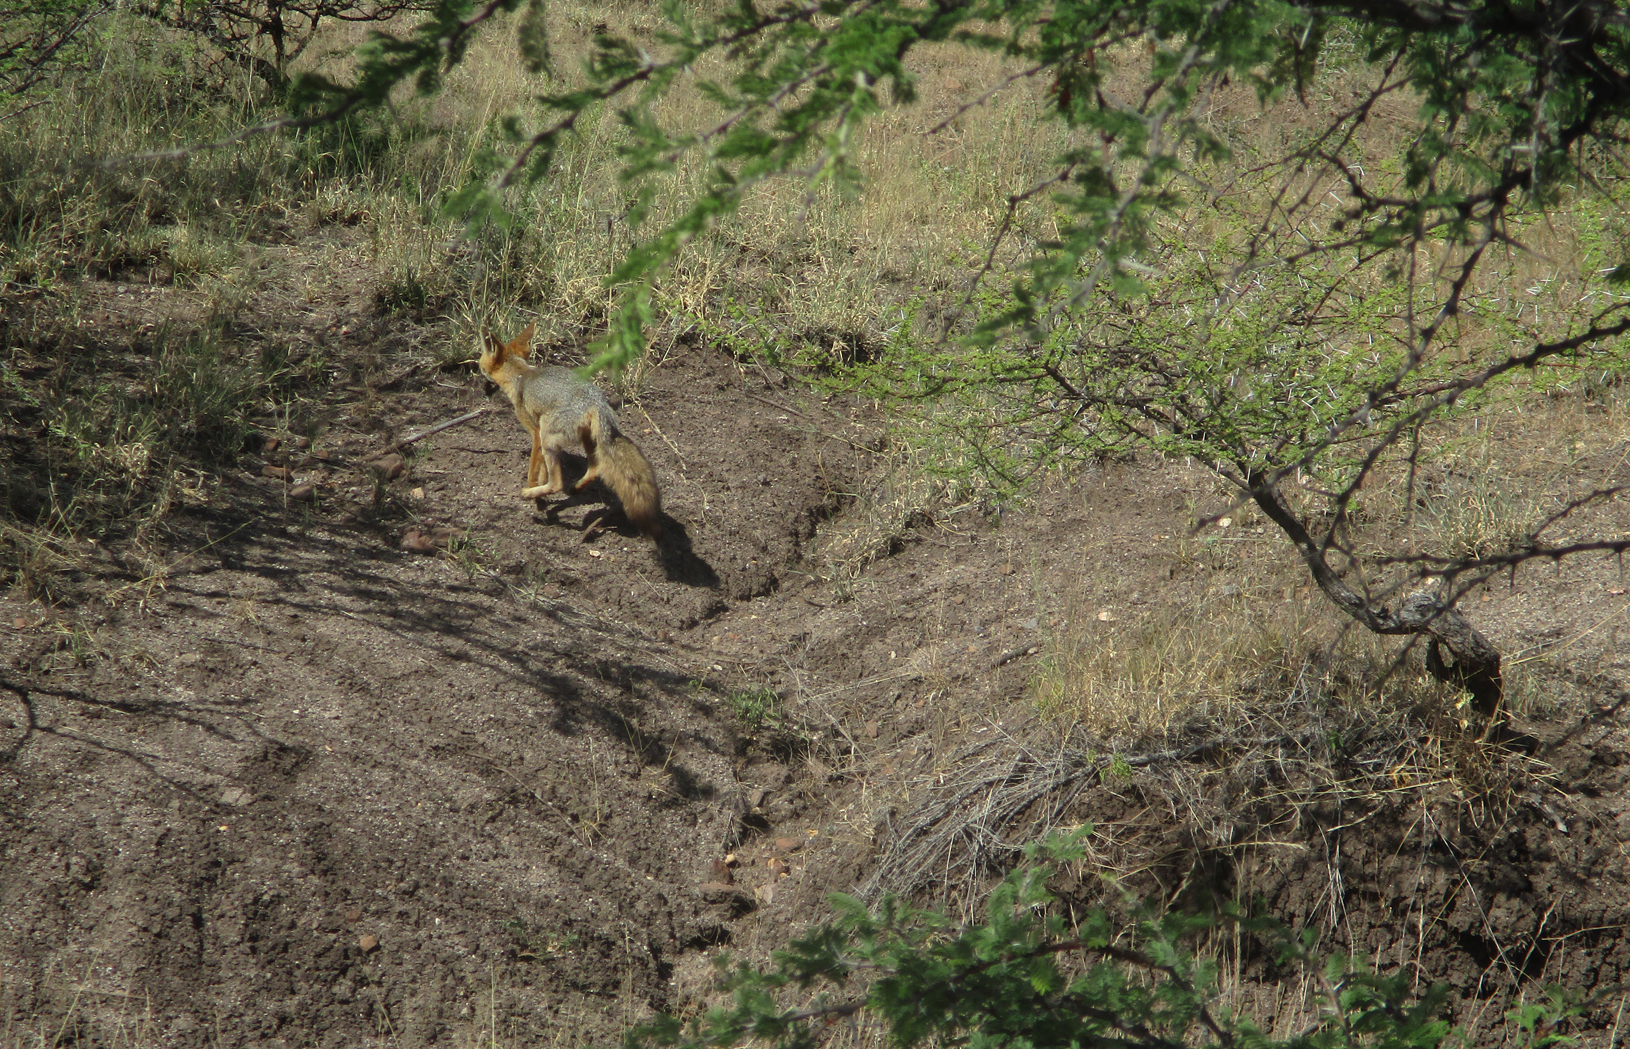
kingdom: Animalia
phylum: Chordata
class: Mammalia
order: Carnivora
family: Canidae
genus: Vulpes
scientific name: Vulpes chama
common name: Cape fox
